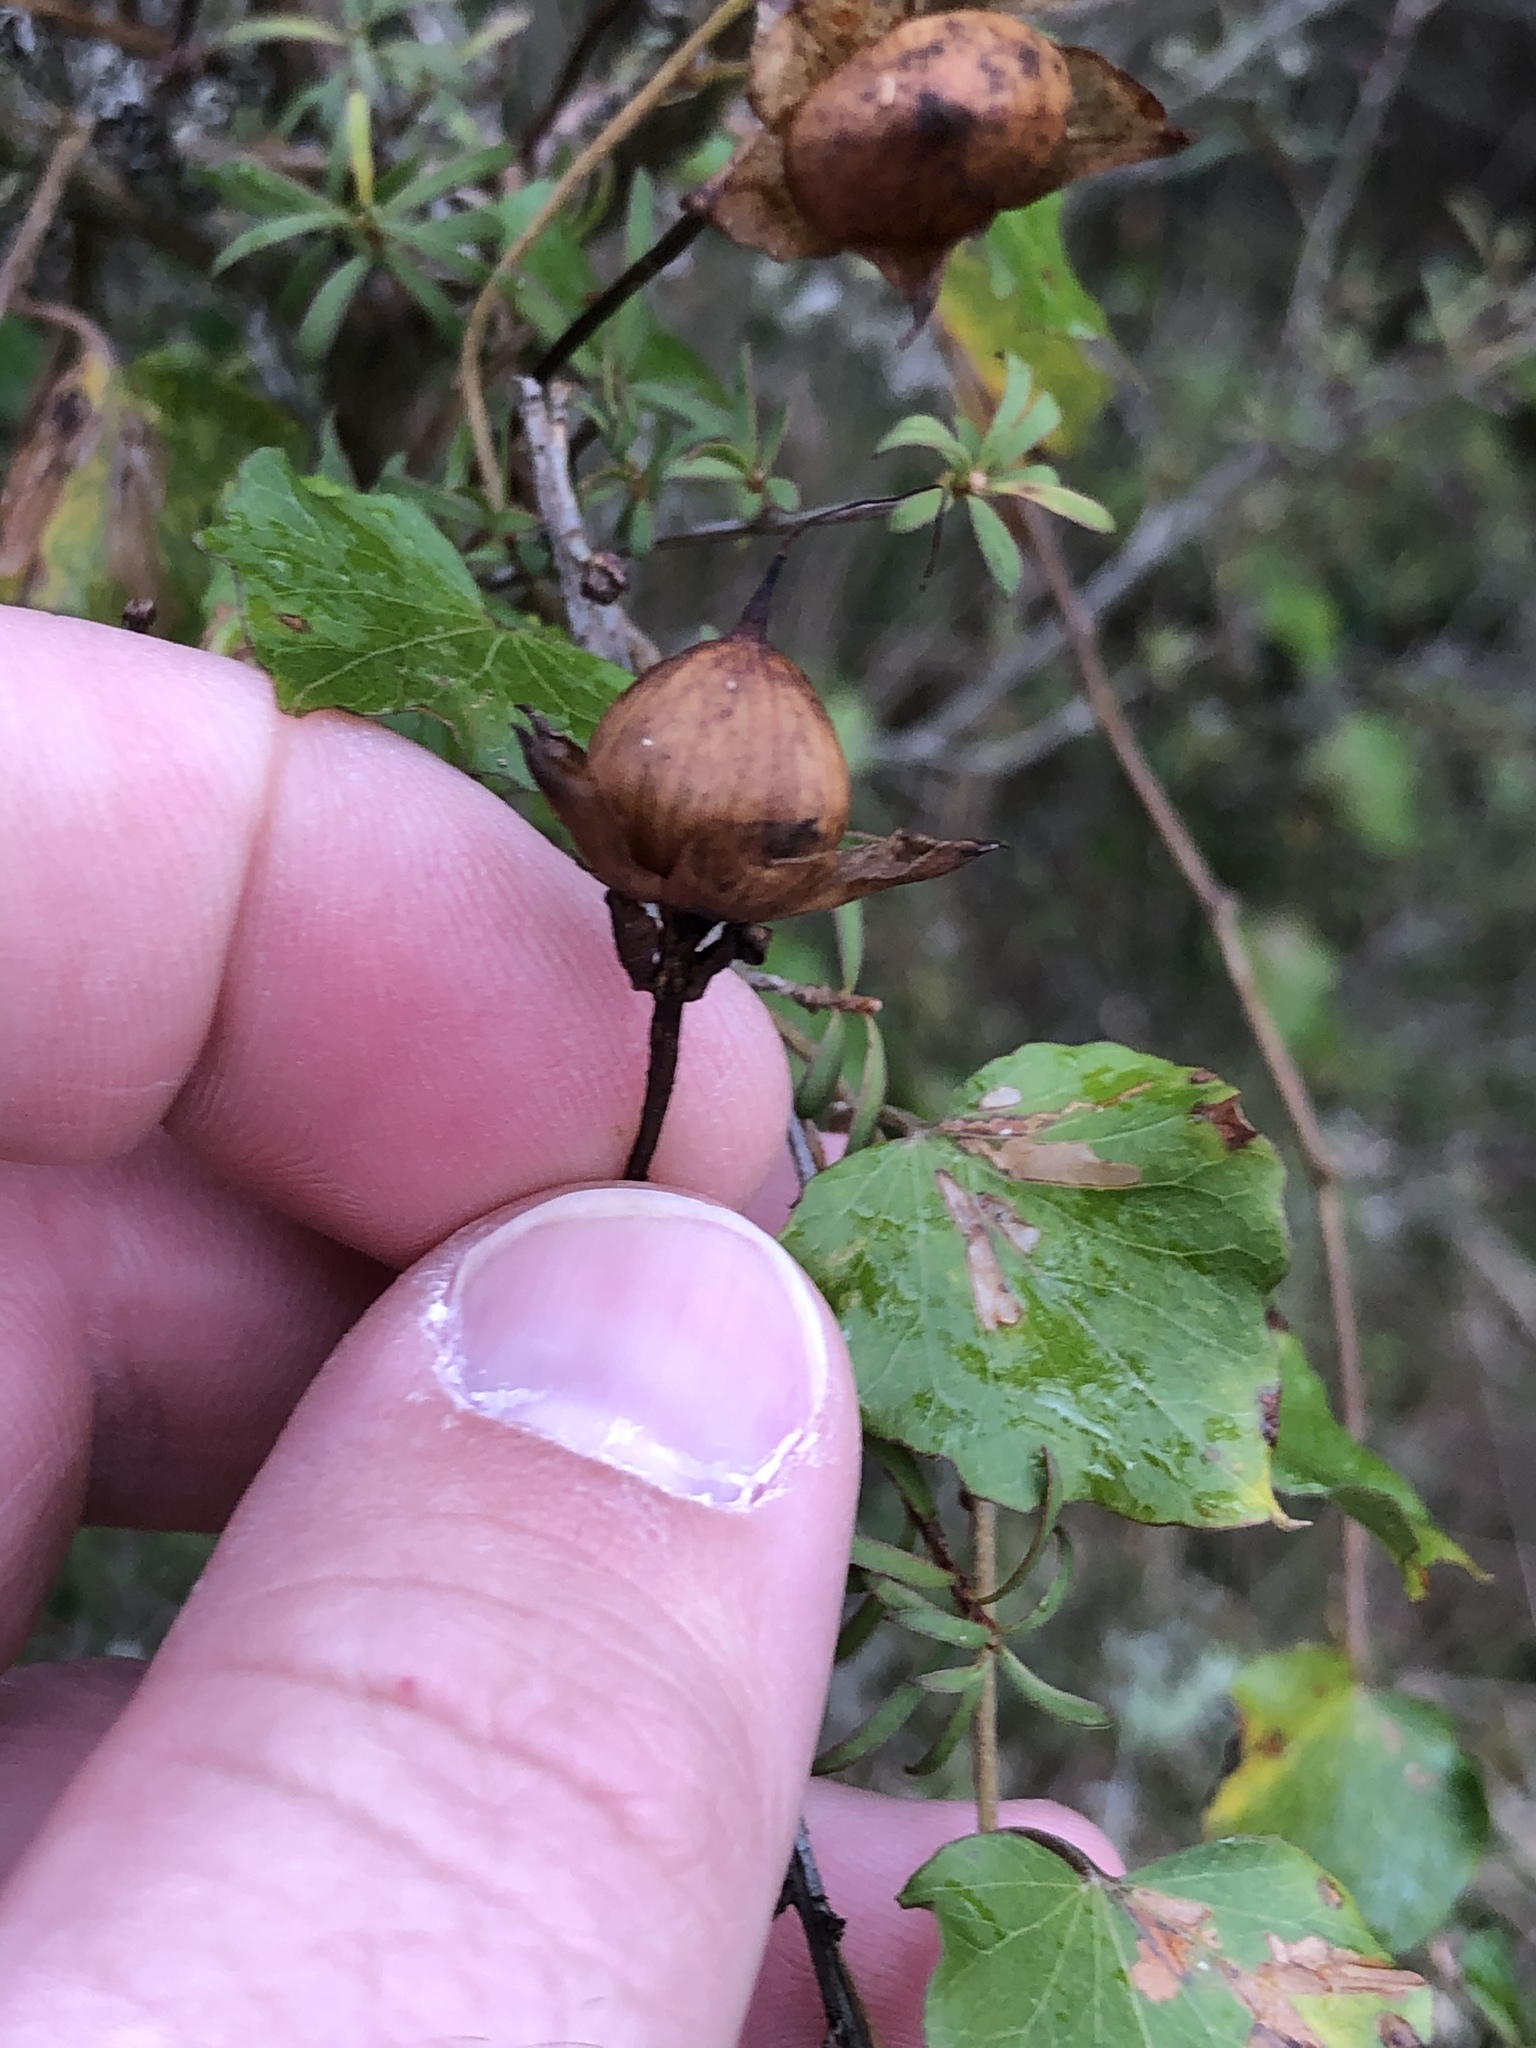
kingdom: Plantae
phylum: Tracheophyta
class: Magnoliopsida
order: Solanales
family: Convolvulaceae
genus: Calystegia
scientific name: Calystegia tuguriorum
